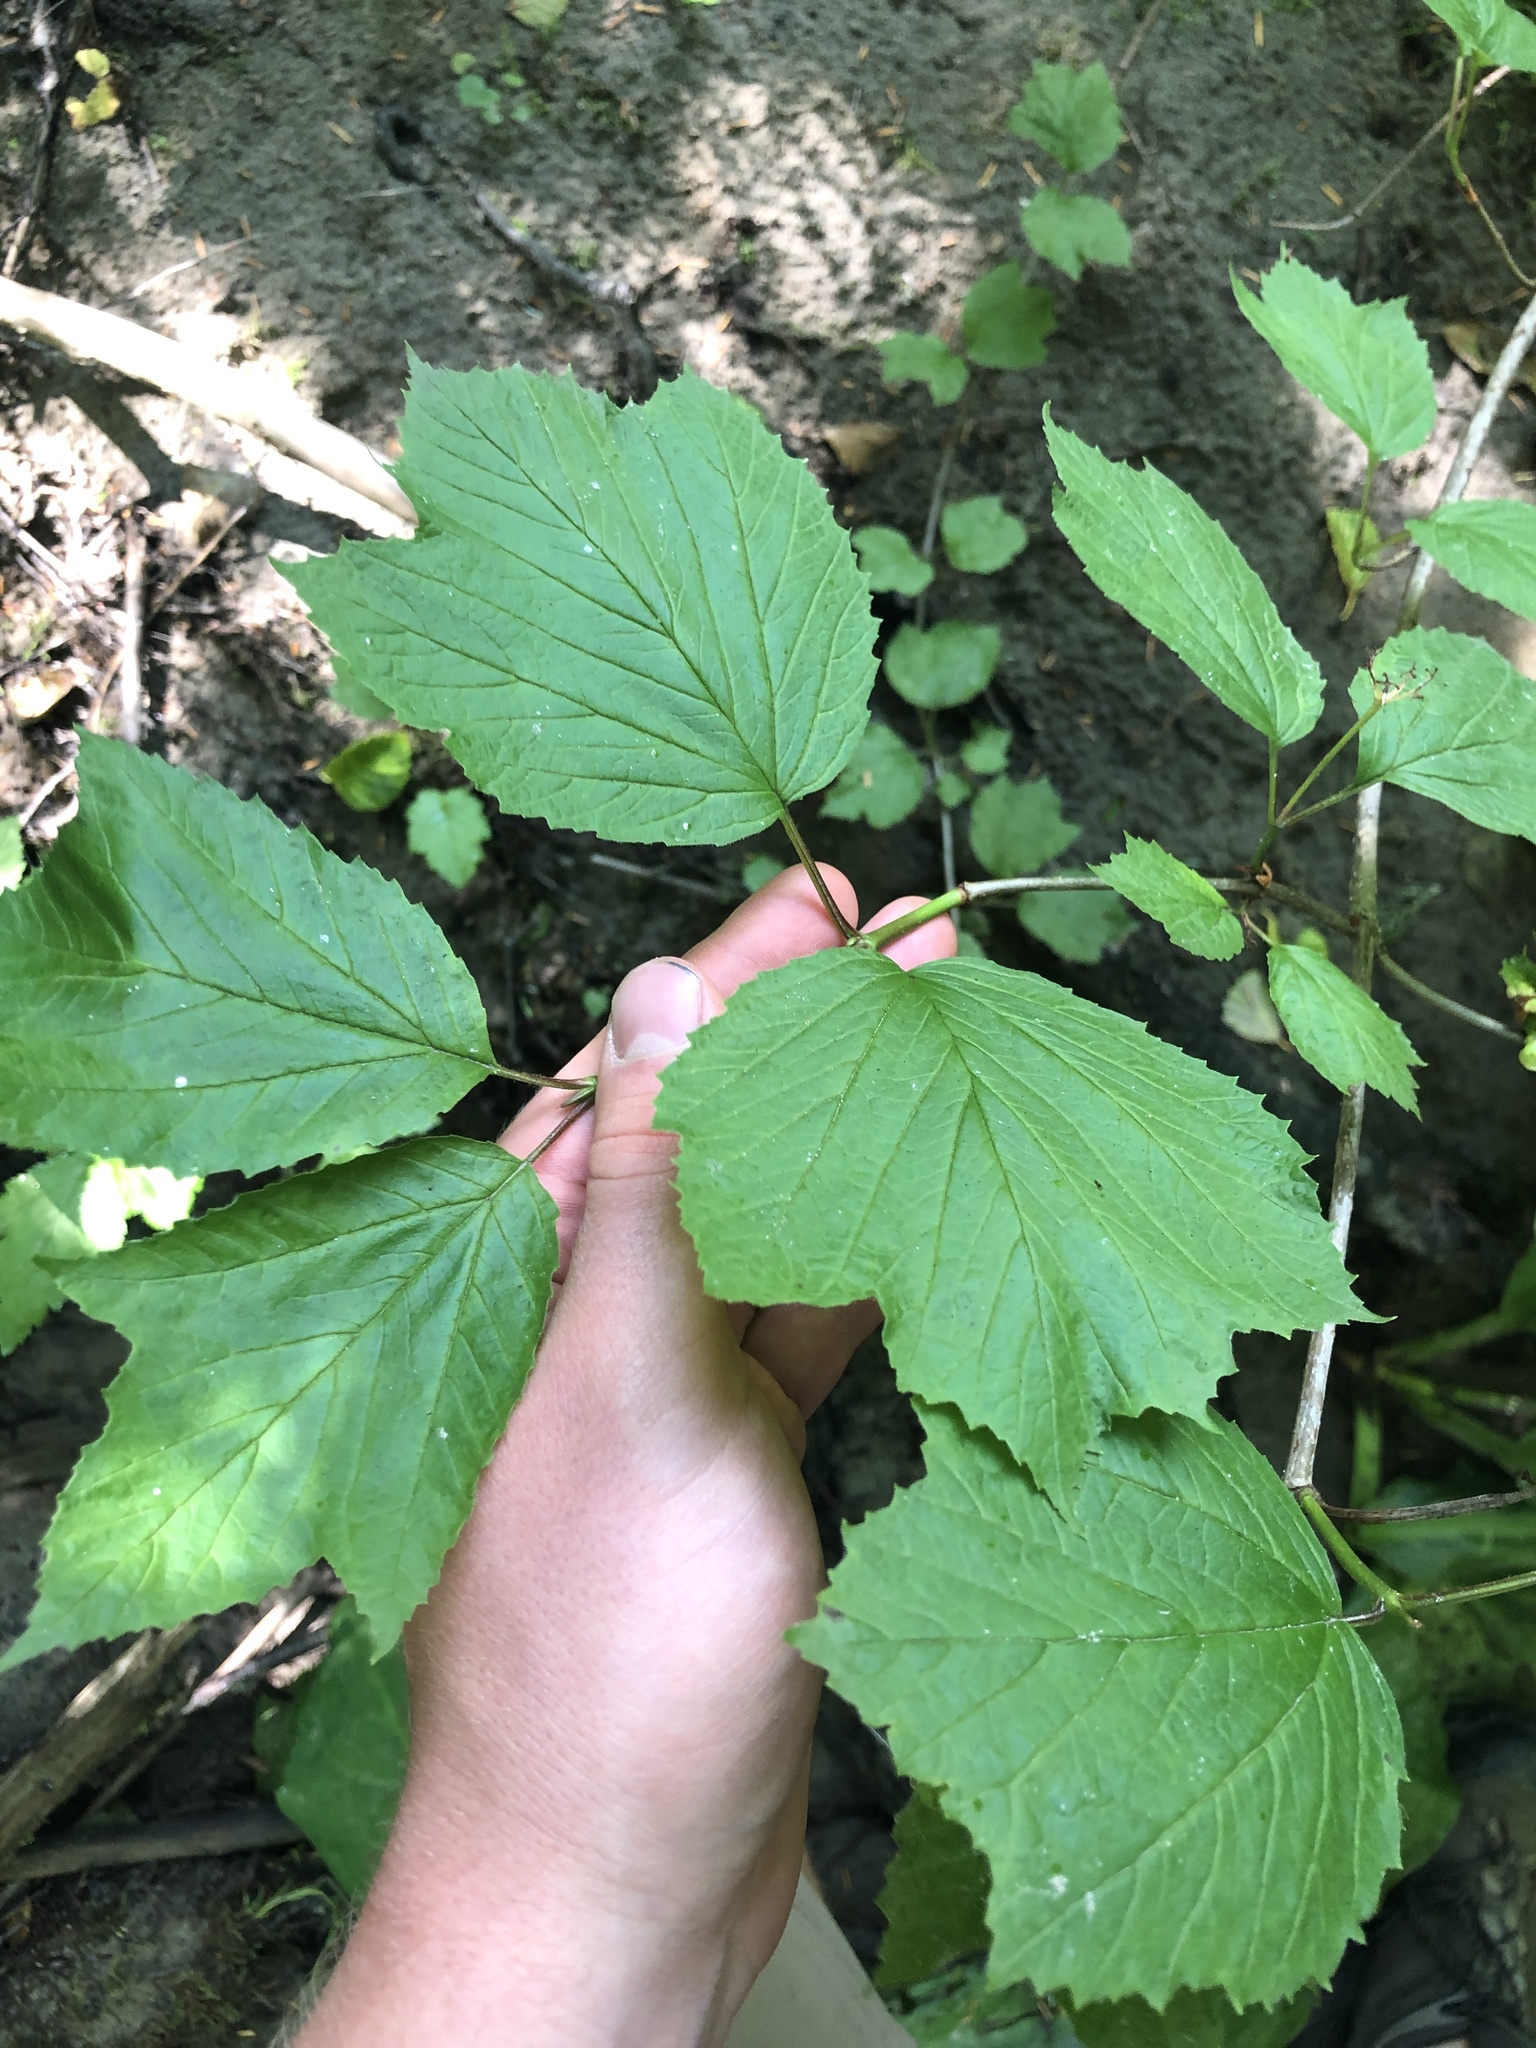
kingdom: Plantae
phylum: Tracheophyta
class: Magnoliopsida
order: Dipsacales
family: Viburnaceae
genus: Viburnum
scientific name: Viburnum edule
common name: Mooseberry
